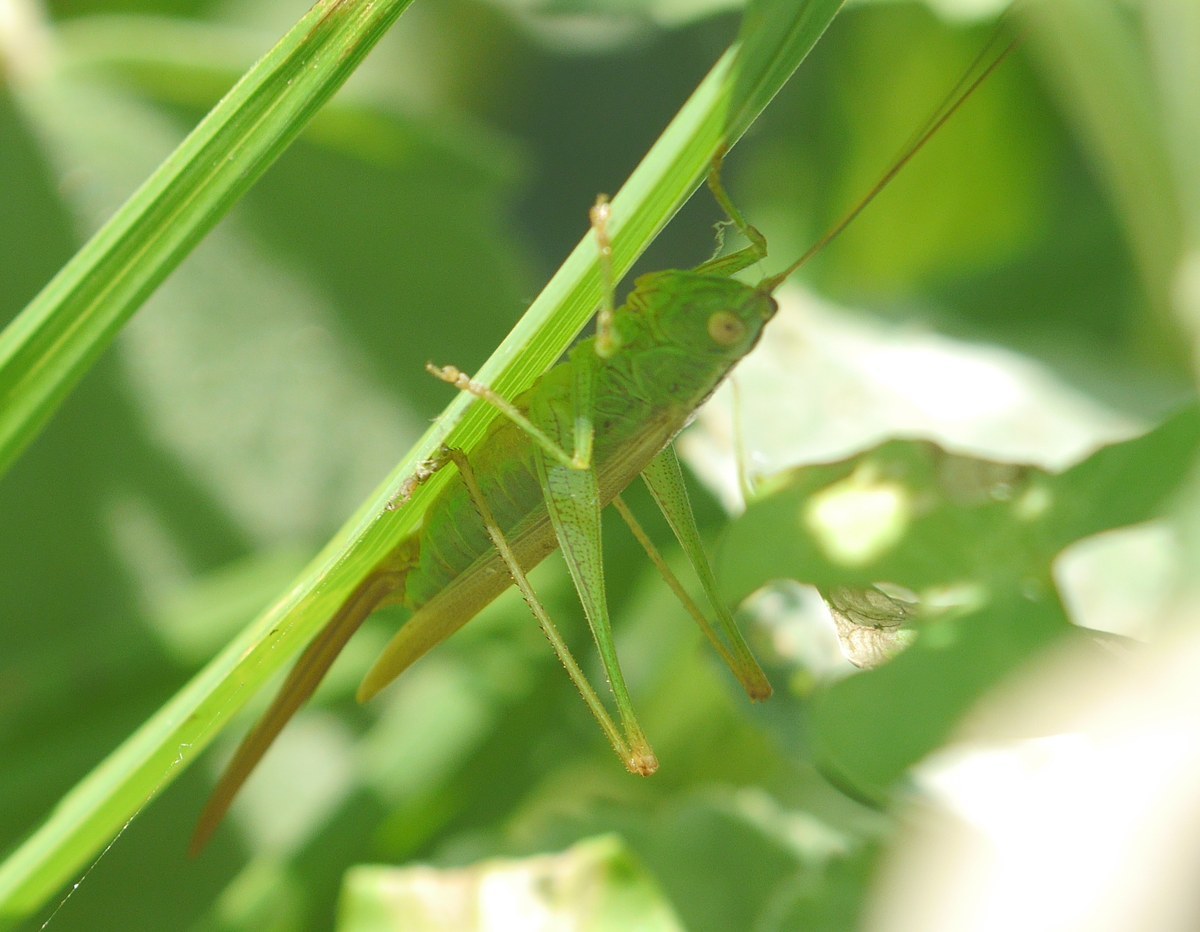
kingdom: Animalia
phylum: Arthropoda
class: Insecta
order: Orthoptera
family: Tettigoniidae
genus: Conocephalus
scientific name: Conocephalus fuscus
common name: Long-winged conehead
